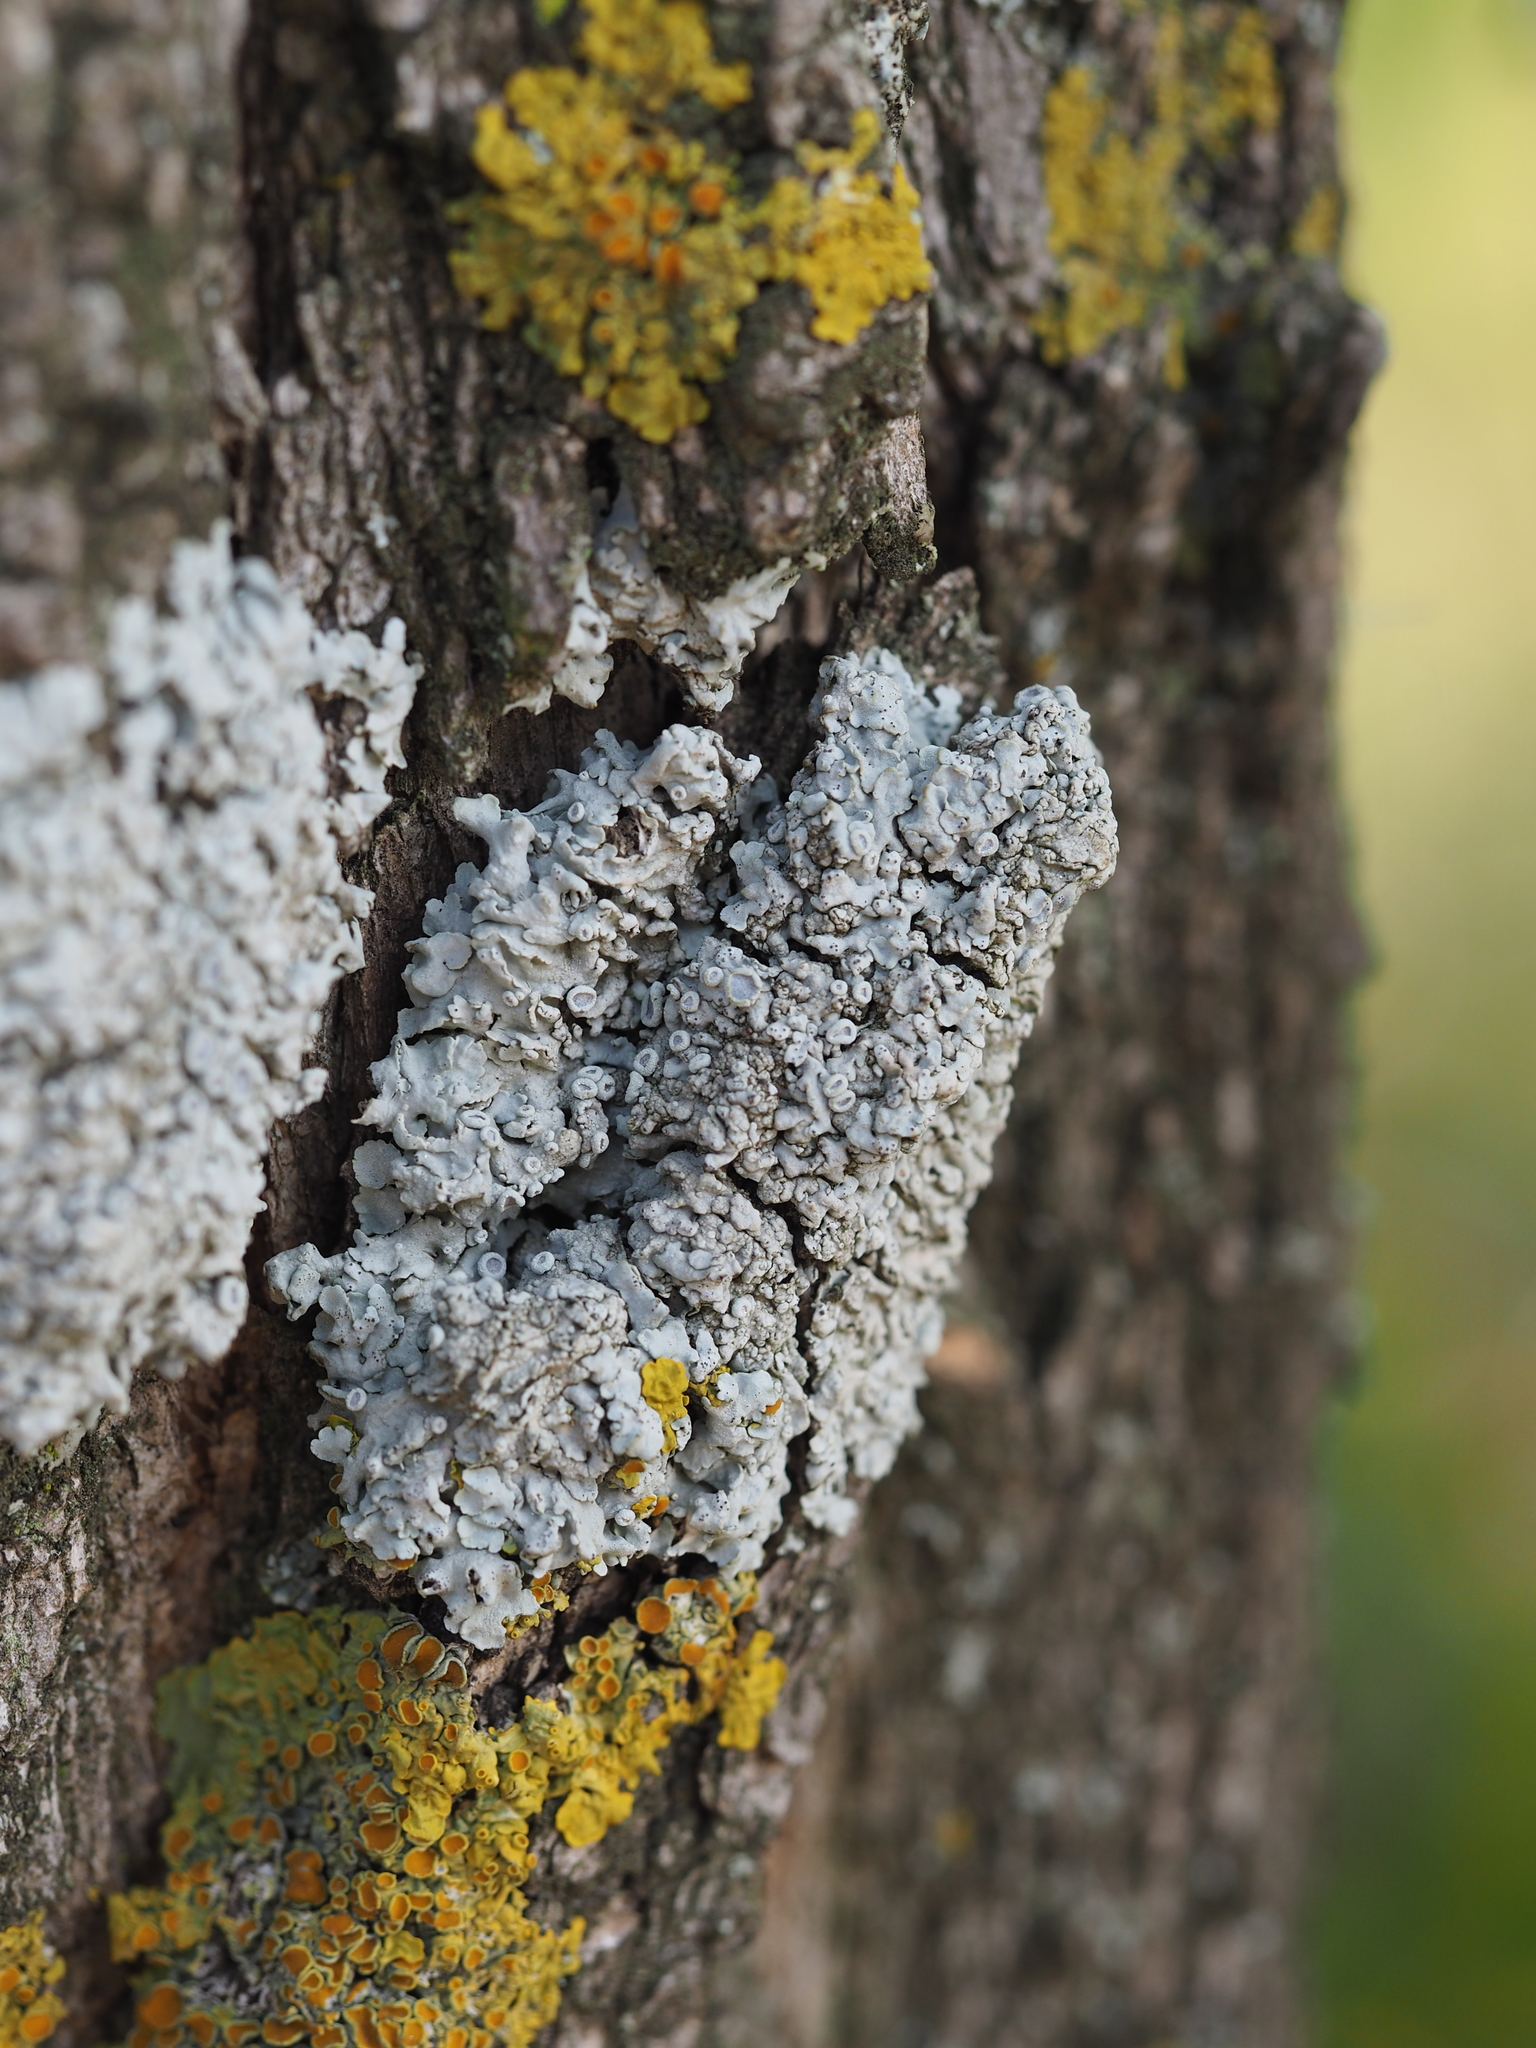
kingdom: Fungi
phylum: Ascomycota
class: Lecanoromycetes
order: Caliciales
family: Physciaceae
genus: Physconia
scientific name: Physconia distorta
